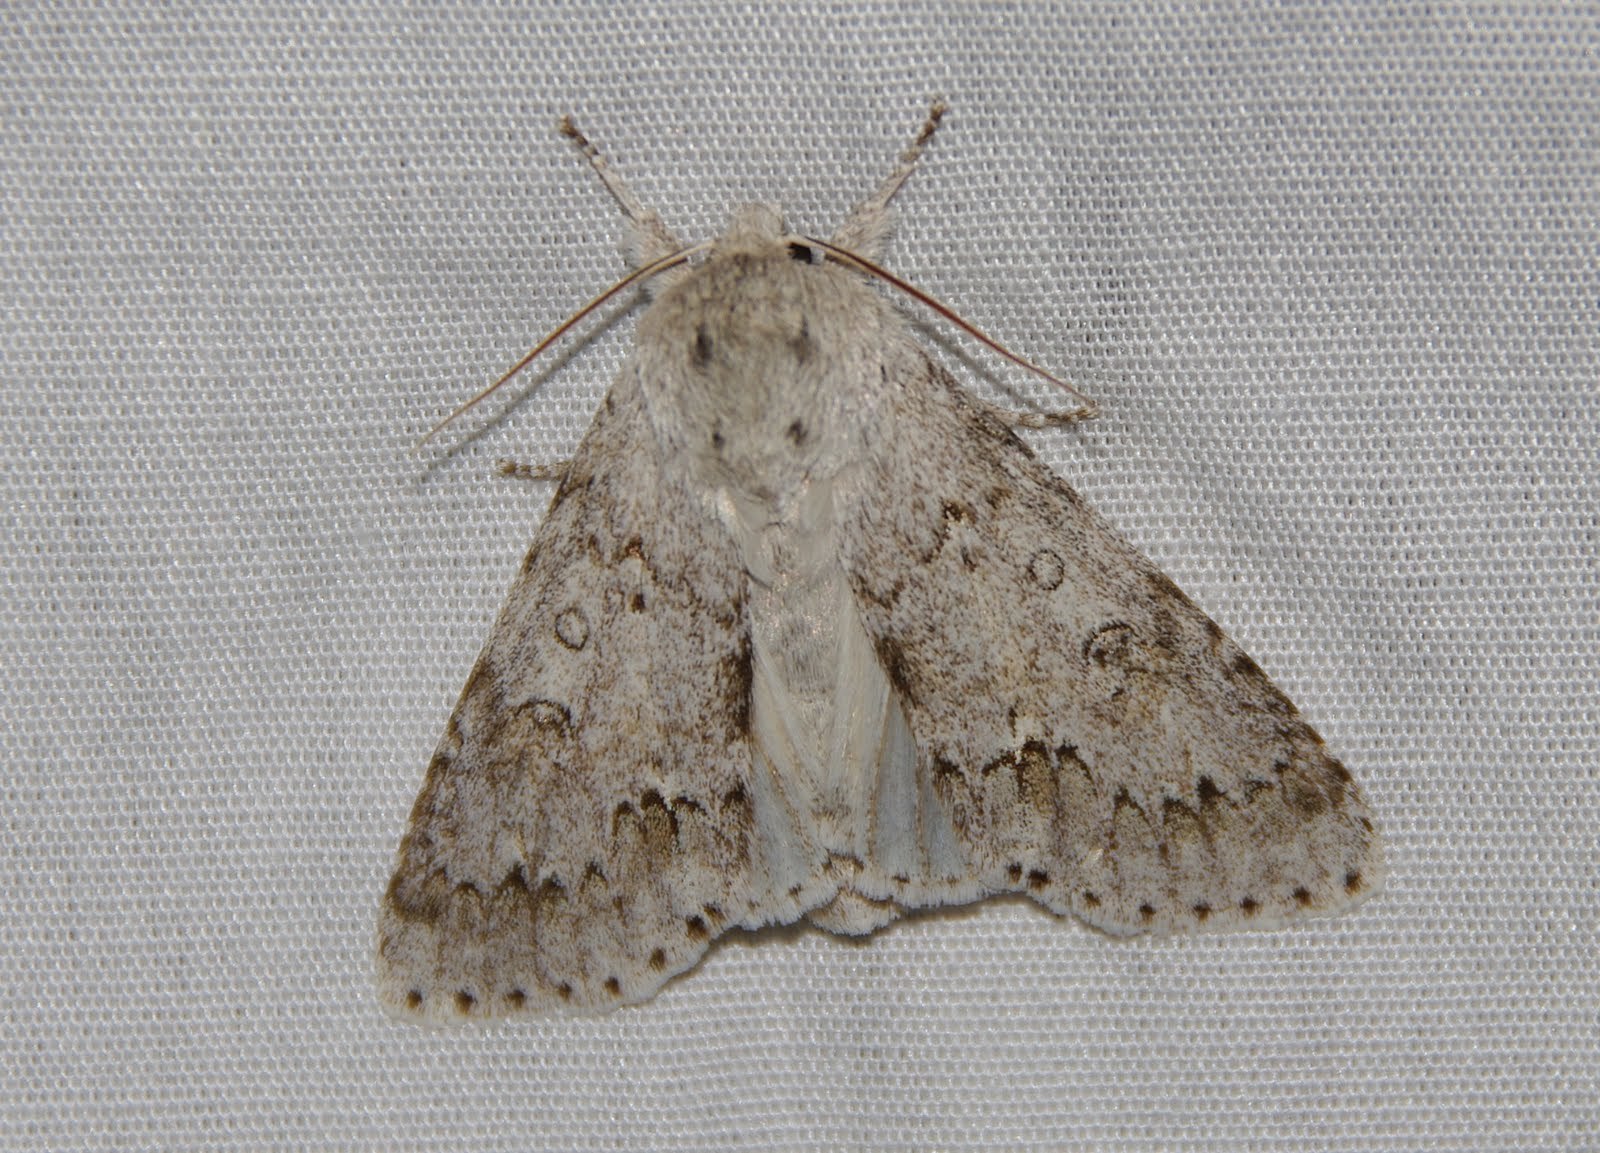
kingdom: Animalia
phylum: Arthropoda
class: Insecta
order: Lepidoptera
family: Noctuidae
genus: Acronicta
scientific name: Acronicta insita
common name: Large gray dagger
